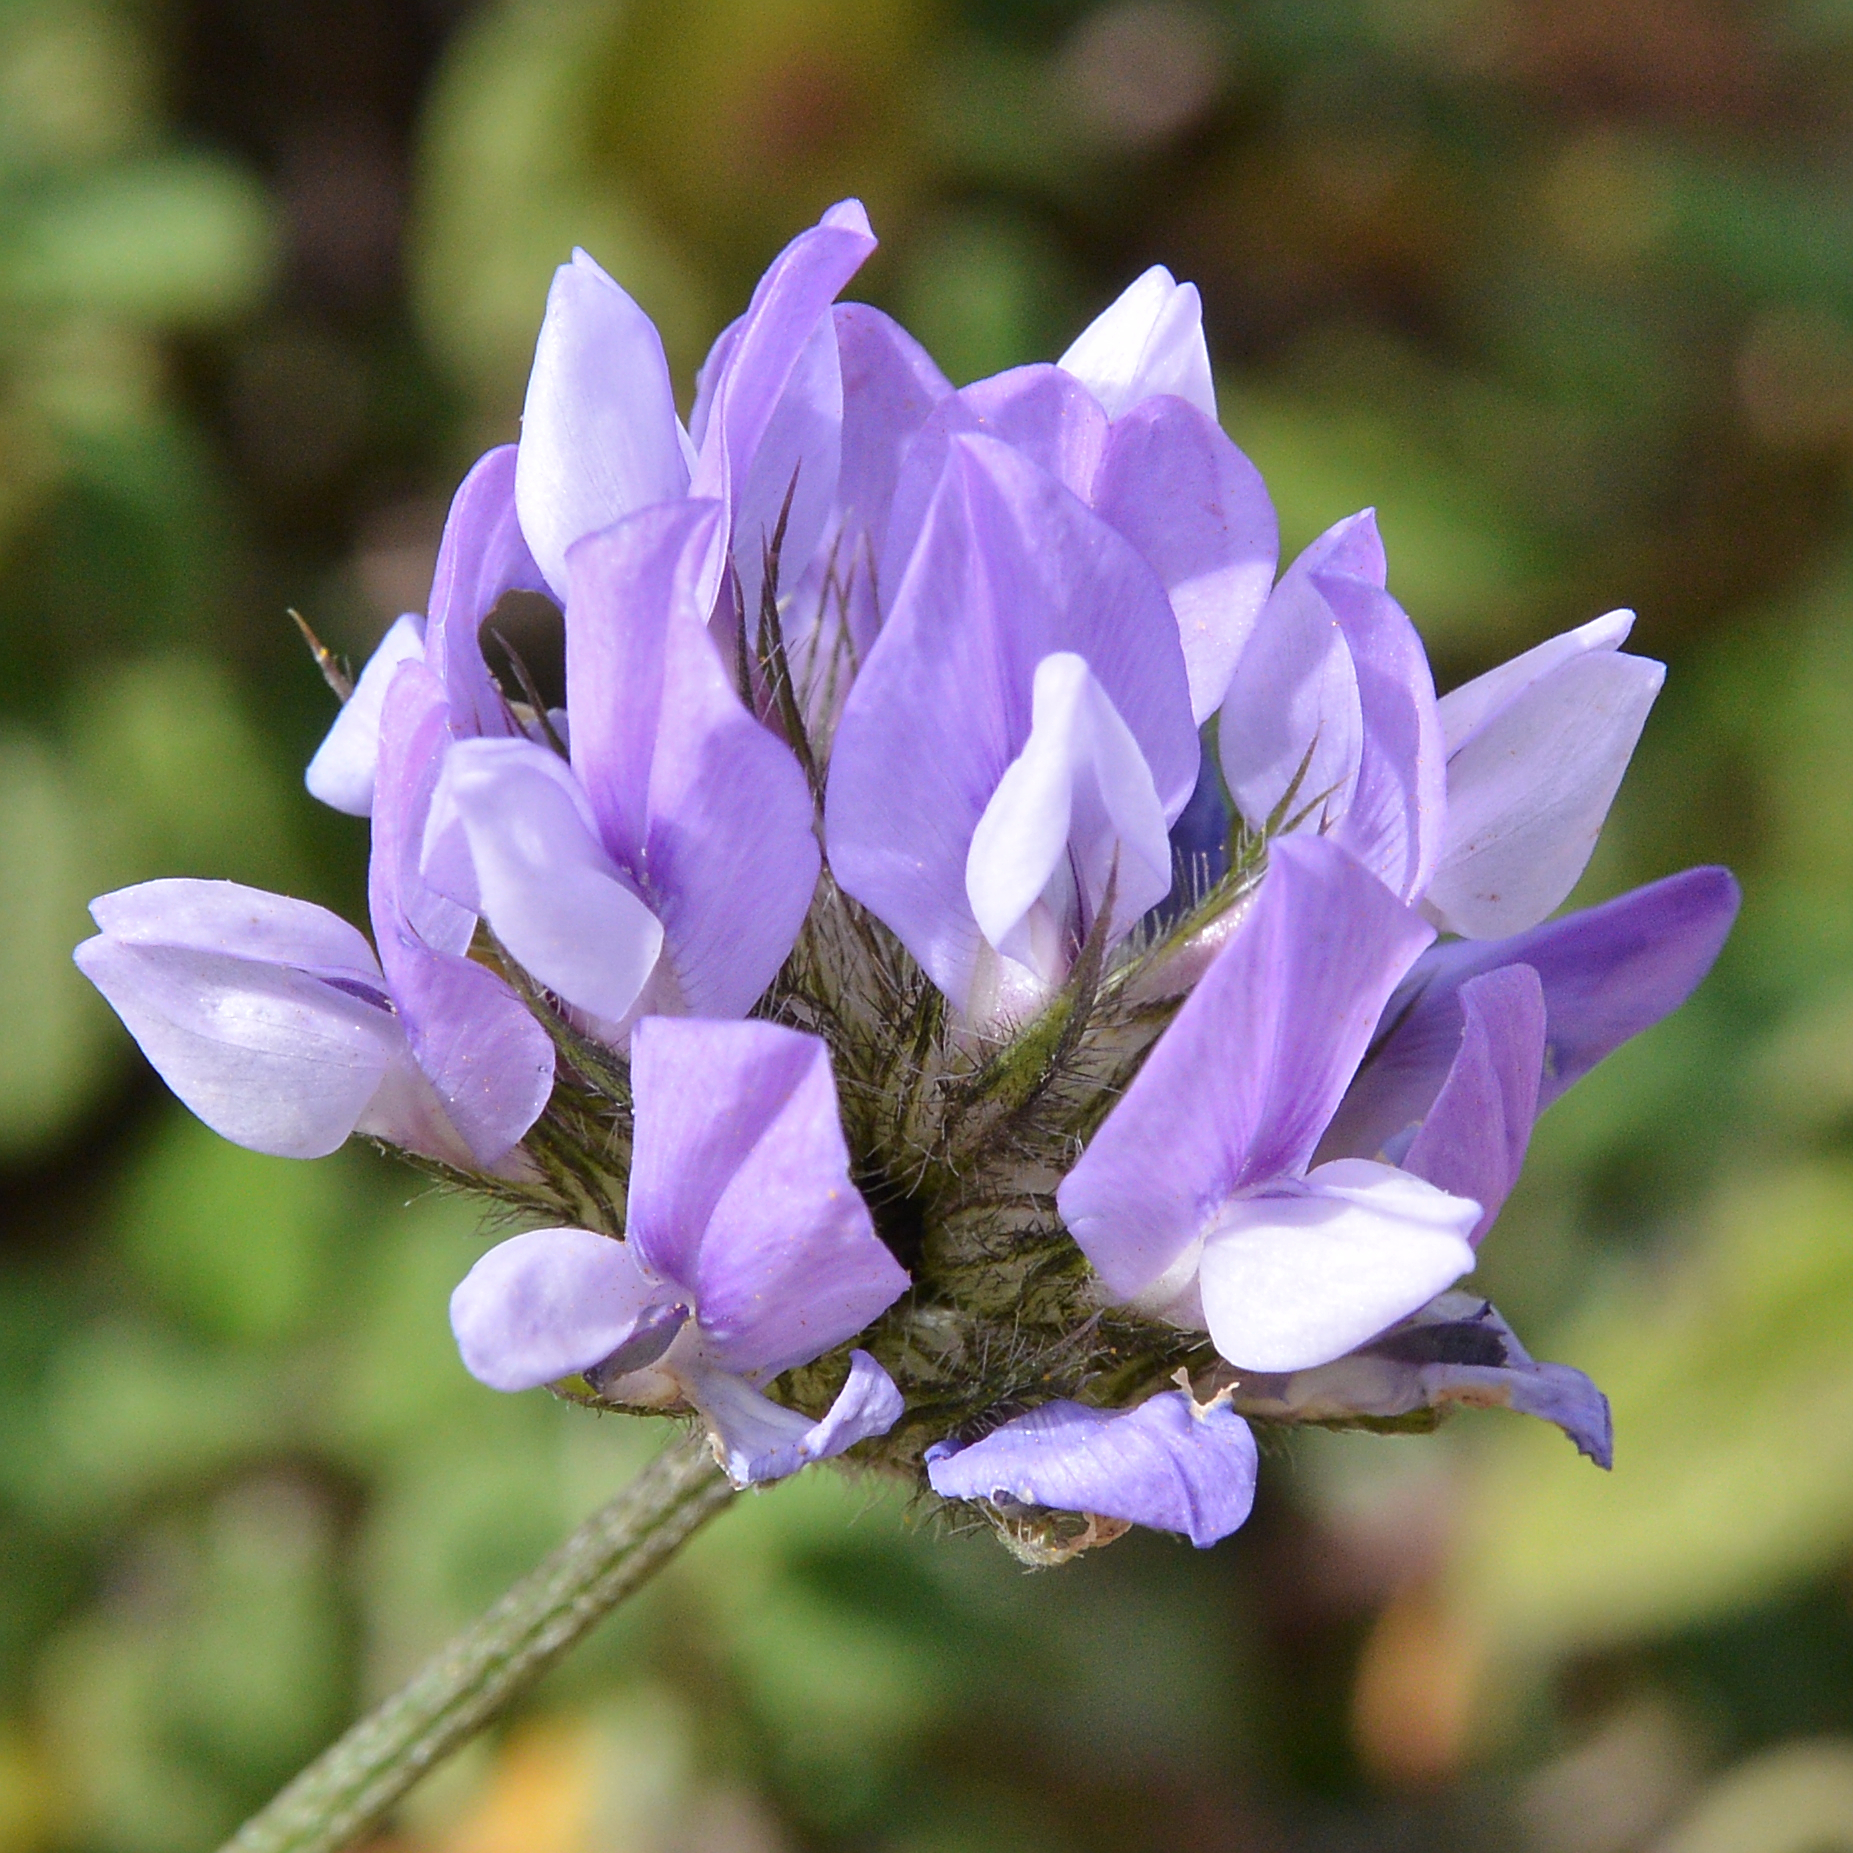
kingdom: Plantae
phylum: Tracheophyta
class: Magnoliopsida
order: Fabales
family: Fabaceae
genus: Bituminaria
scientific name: Bituminaria bituminosa
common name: Arabian pea
